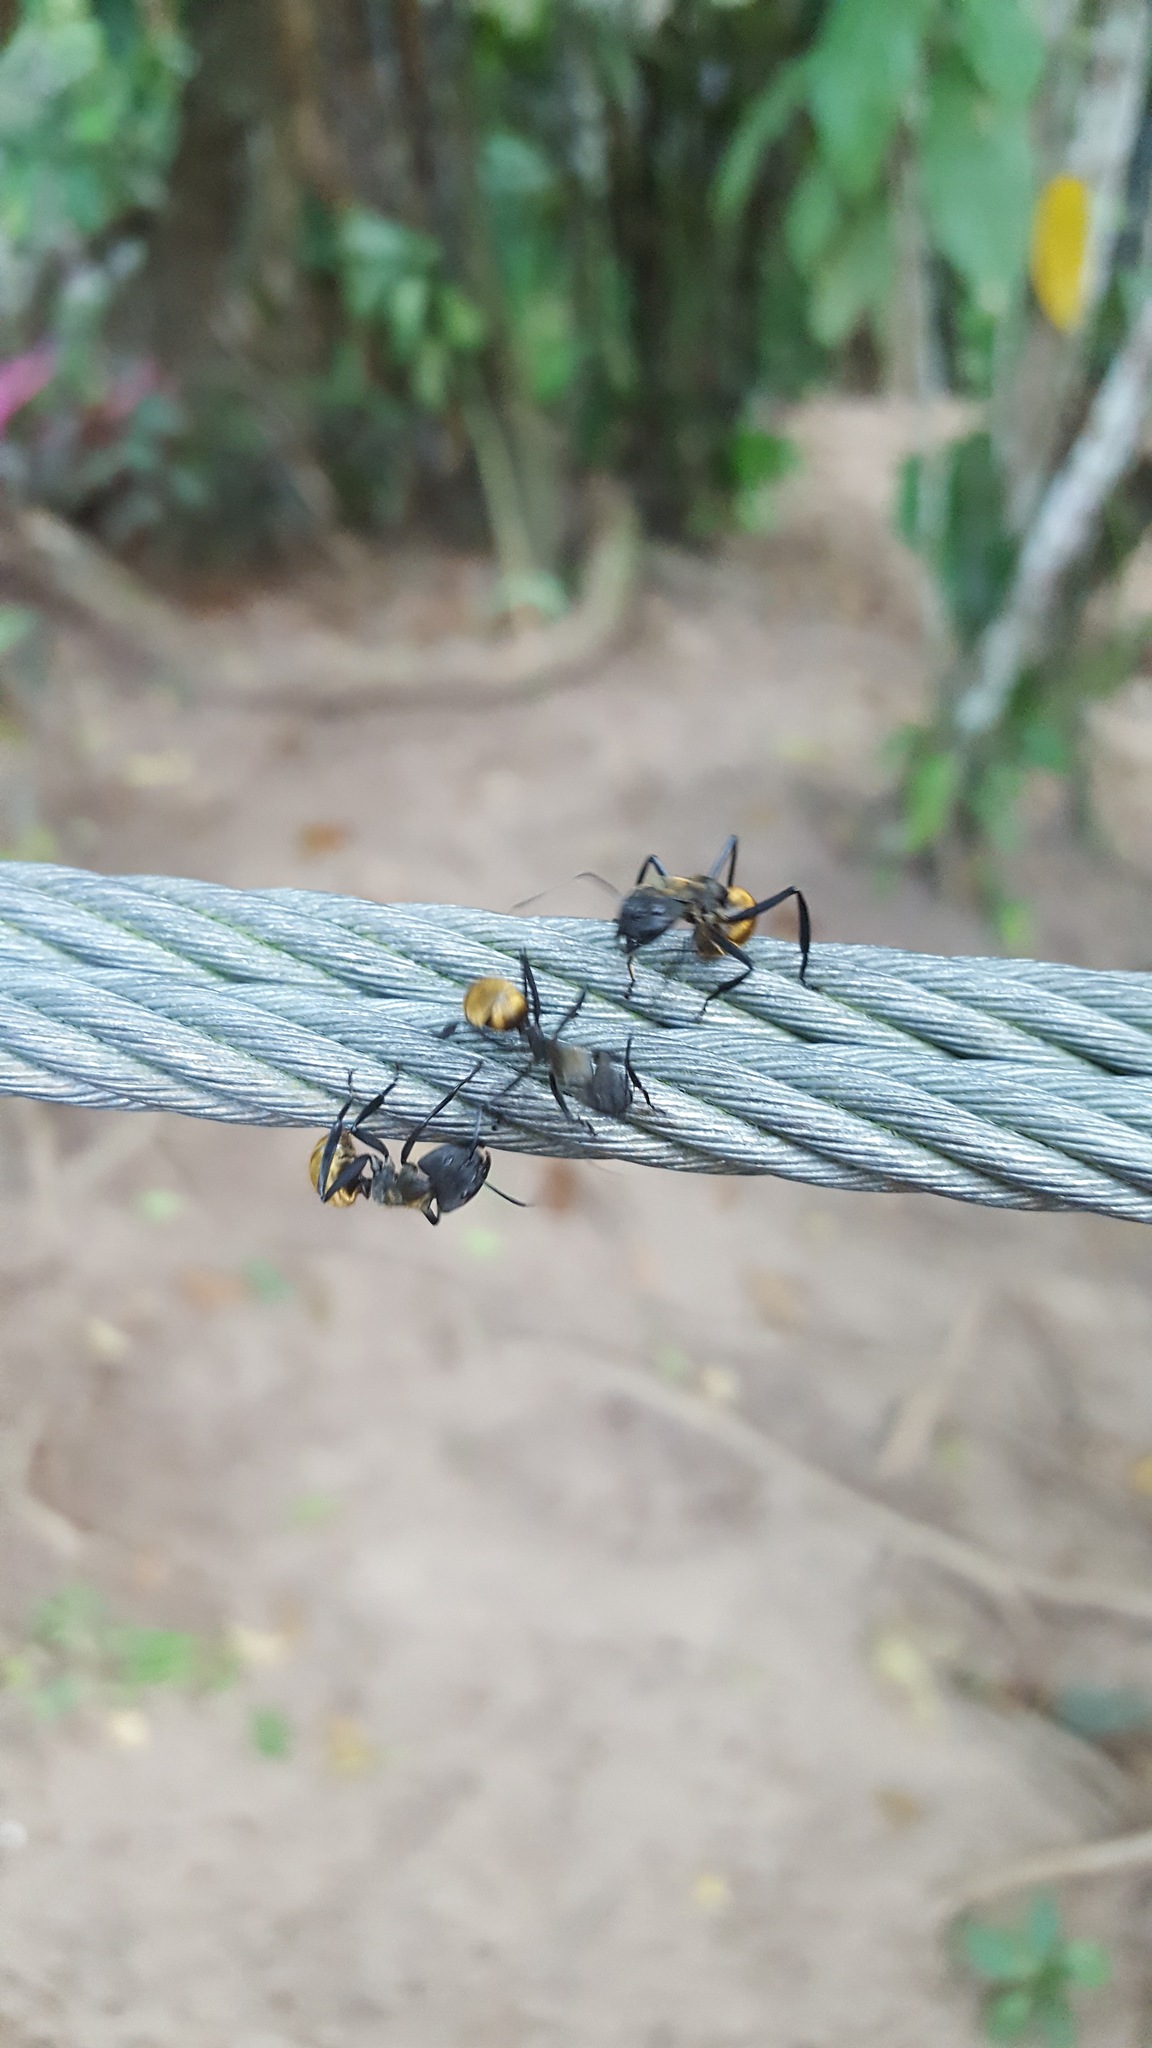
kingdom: Animalia
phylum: Arthropoda
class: Insecta
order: Hymenoptera
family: Formicidae
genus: Camponotus
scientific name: Camponotus sericeiventris
